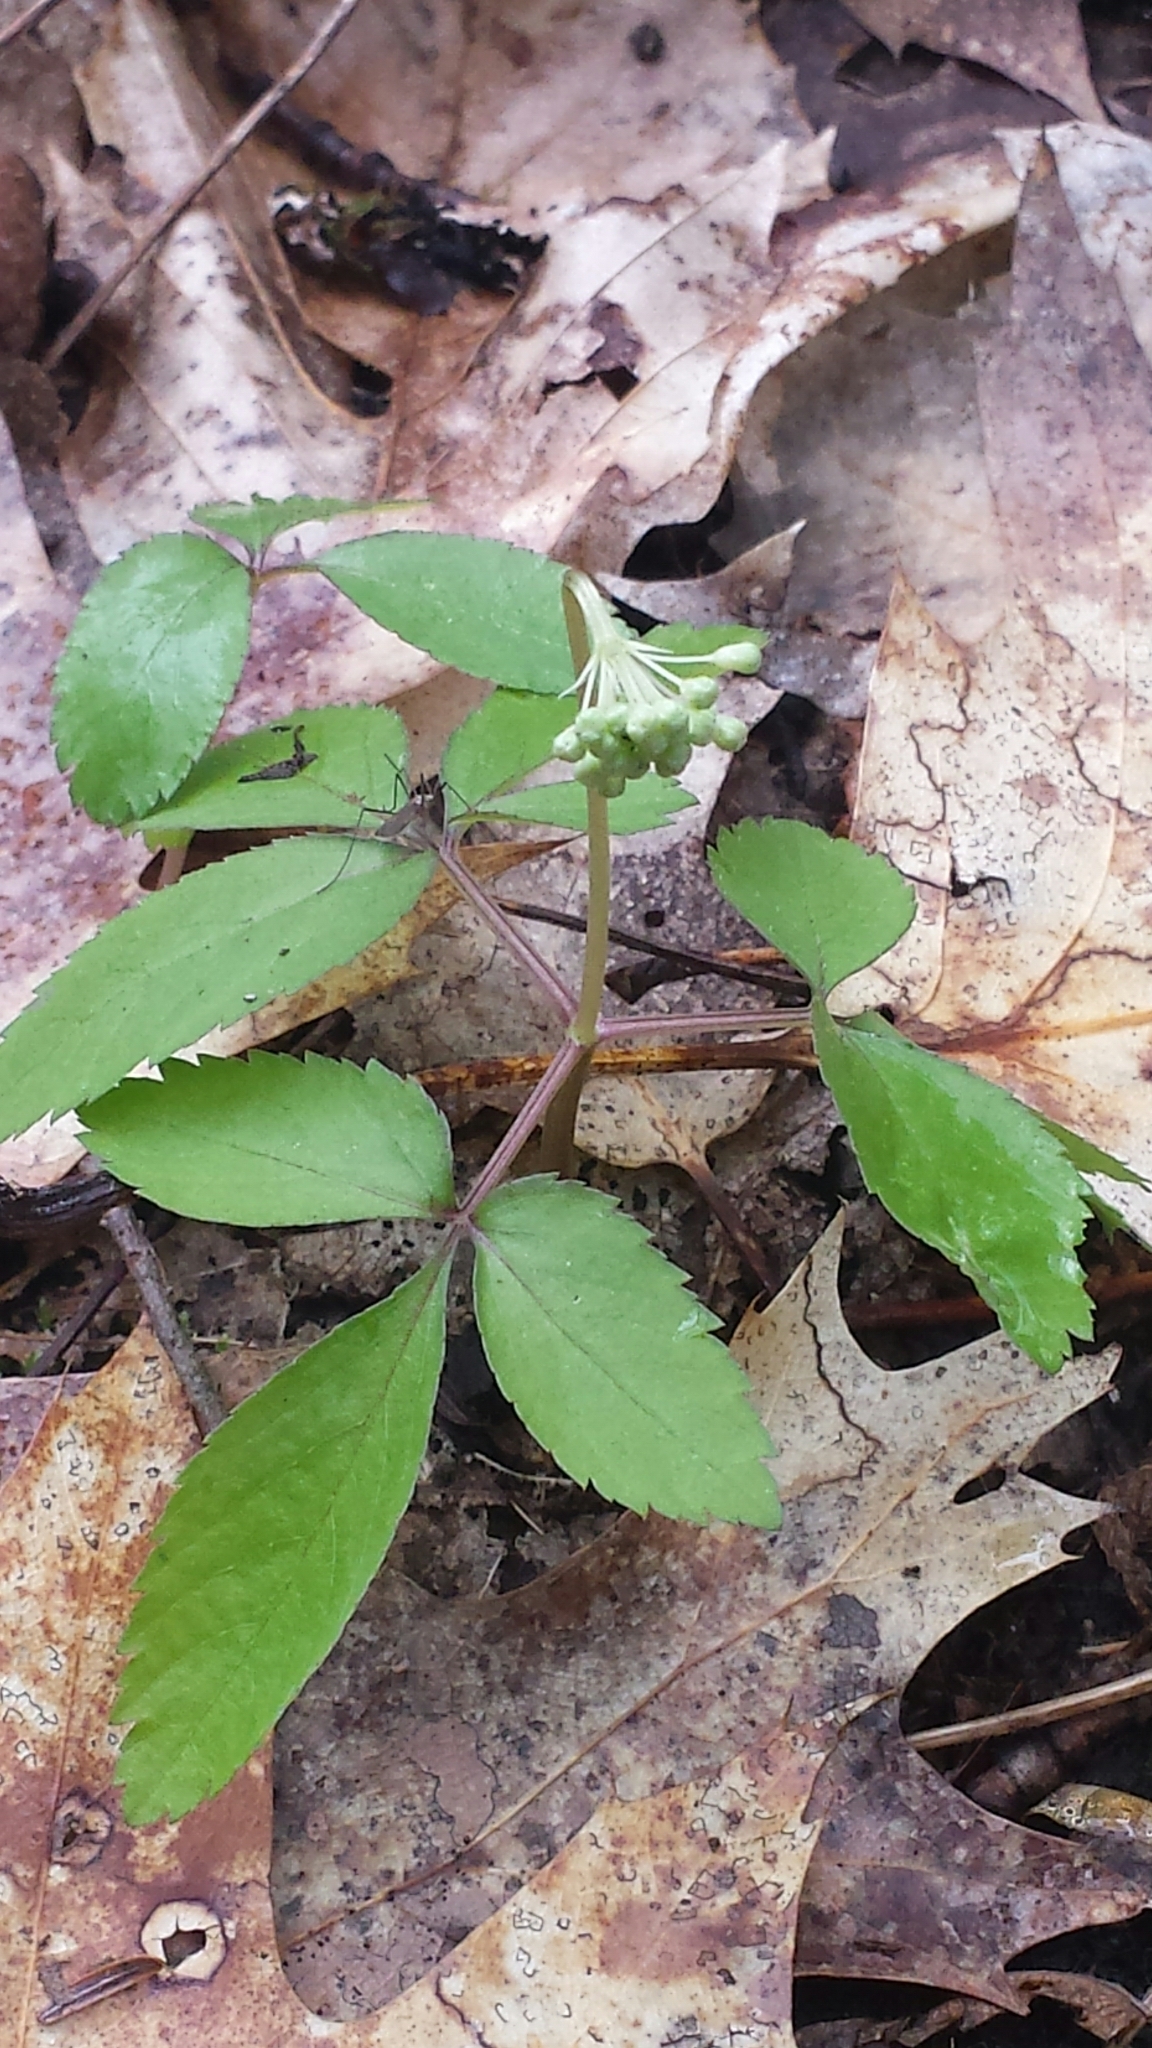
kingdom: Plantae
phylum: Tracheophyta
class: Magnoliopsida
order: Apiales
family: Araliaceae
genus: Panax
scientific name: Panax trifolius
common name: Dwarf ginseng
